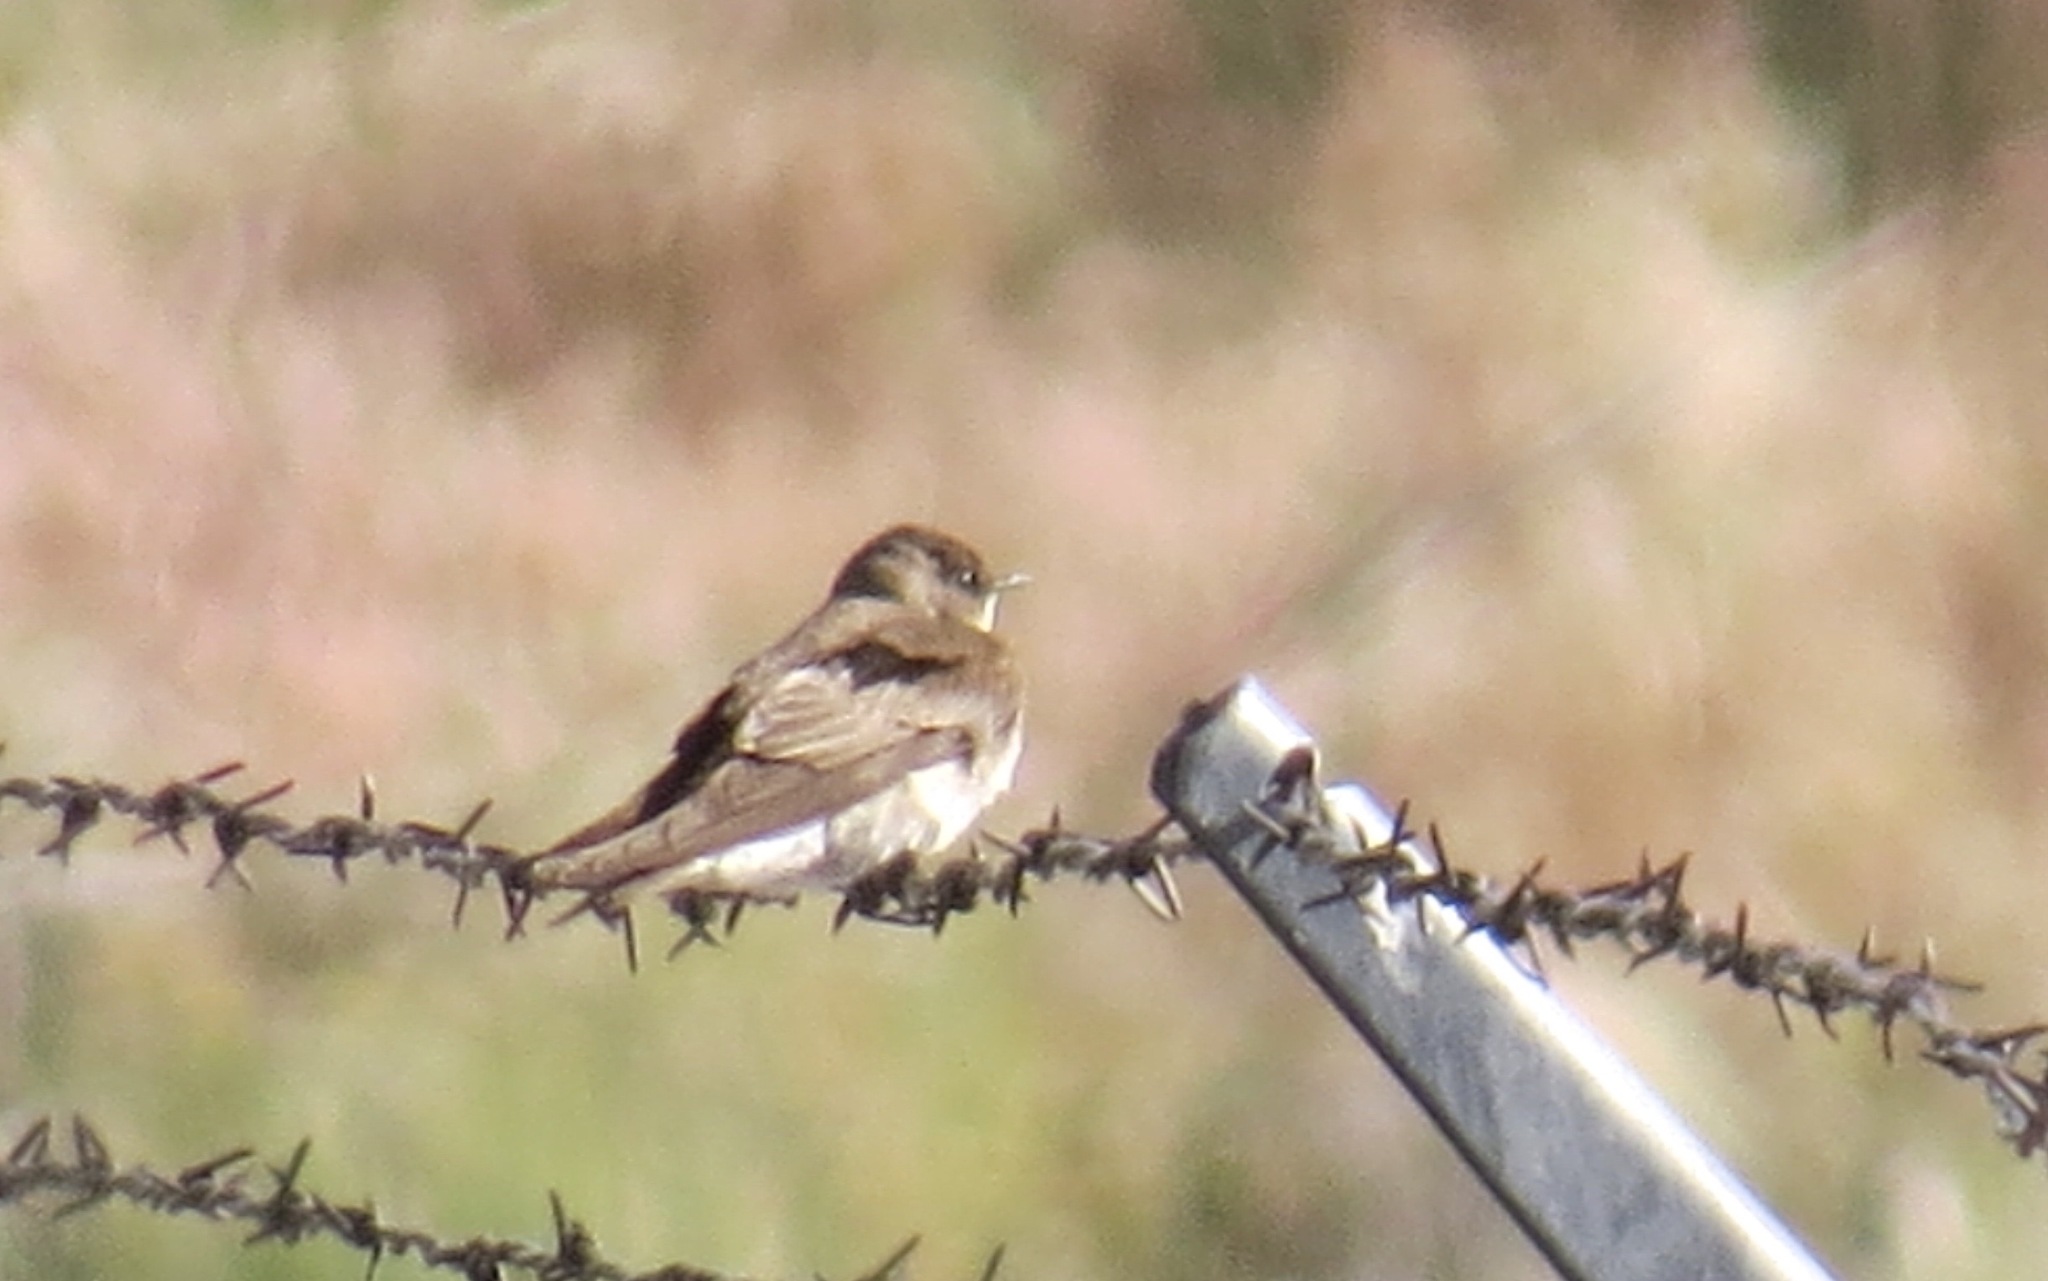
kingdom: Animalia
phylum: Chordata
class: Aves
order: Passeriformes
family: Hirundinidae
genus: Stelgidopteryx
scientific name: Stelgidopteryx serripennis
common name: Northern rough-winged swallow
